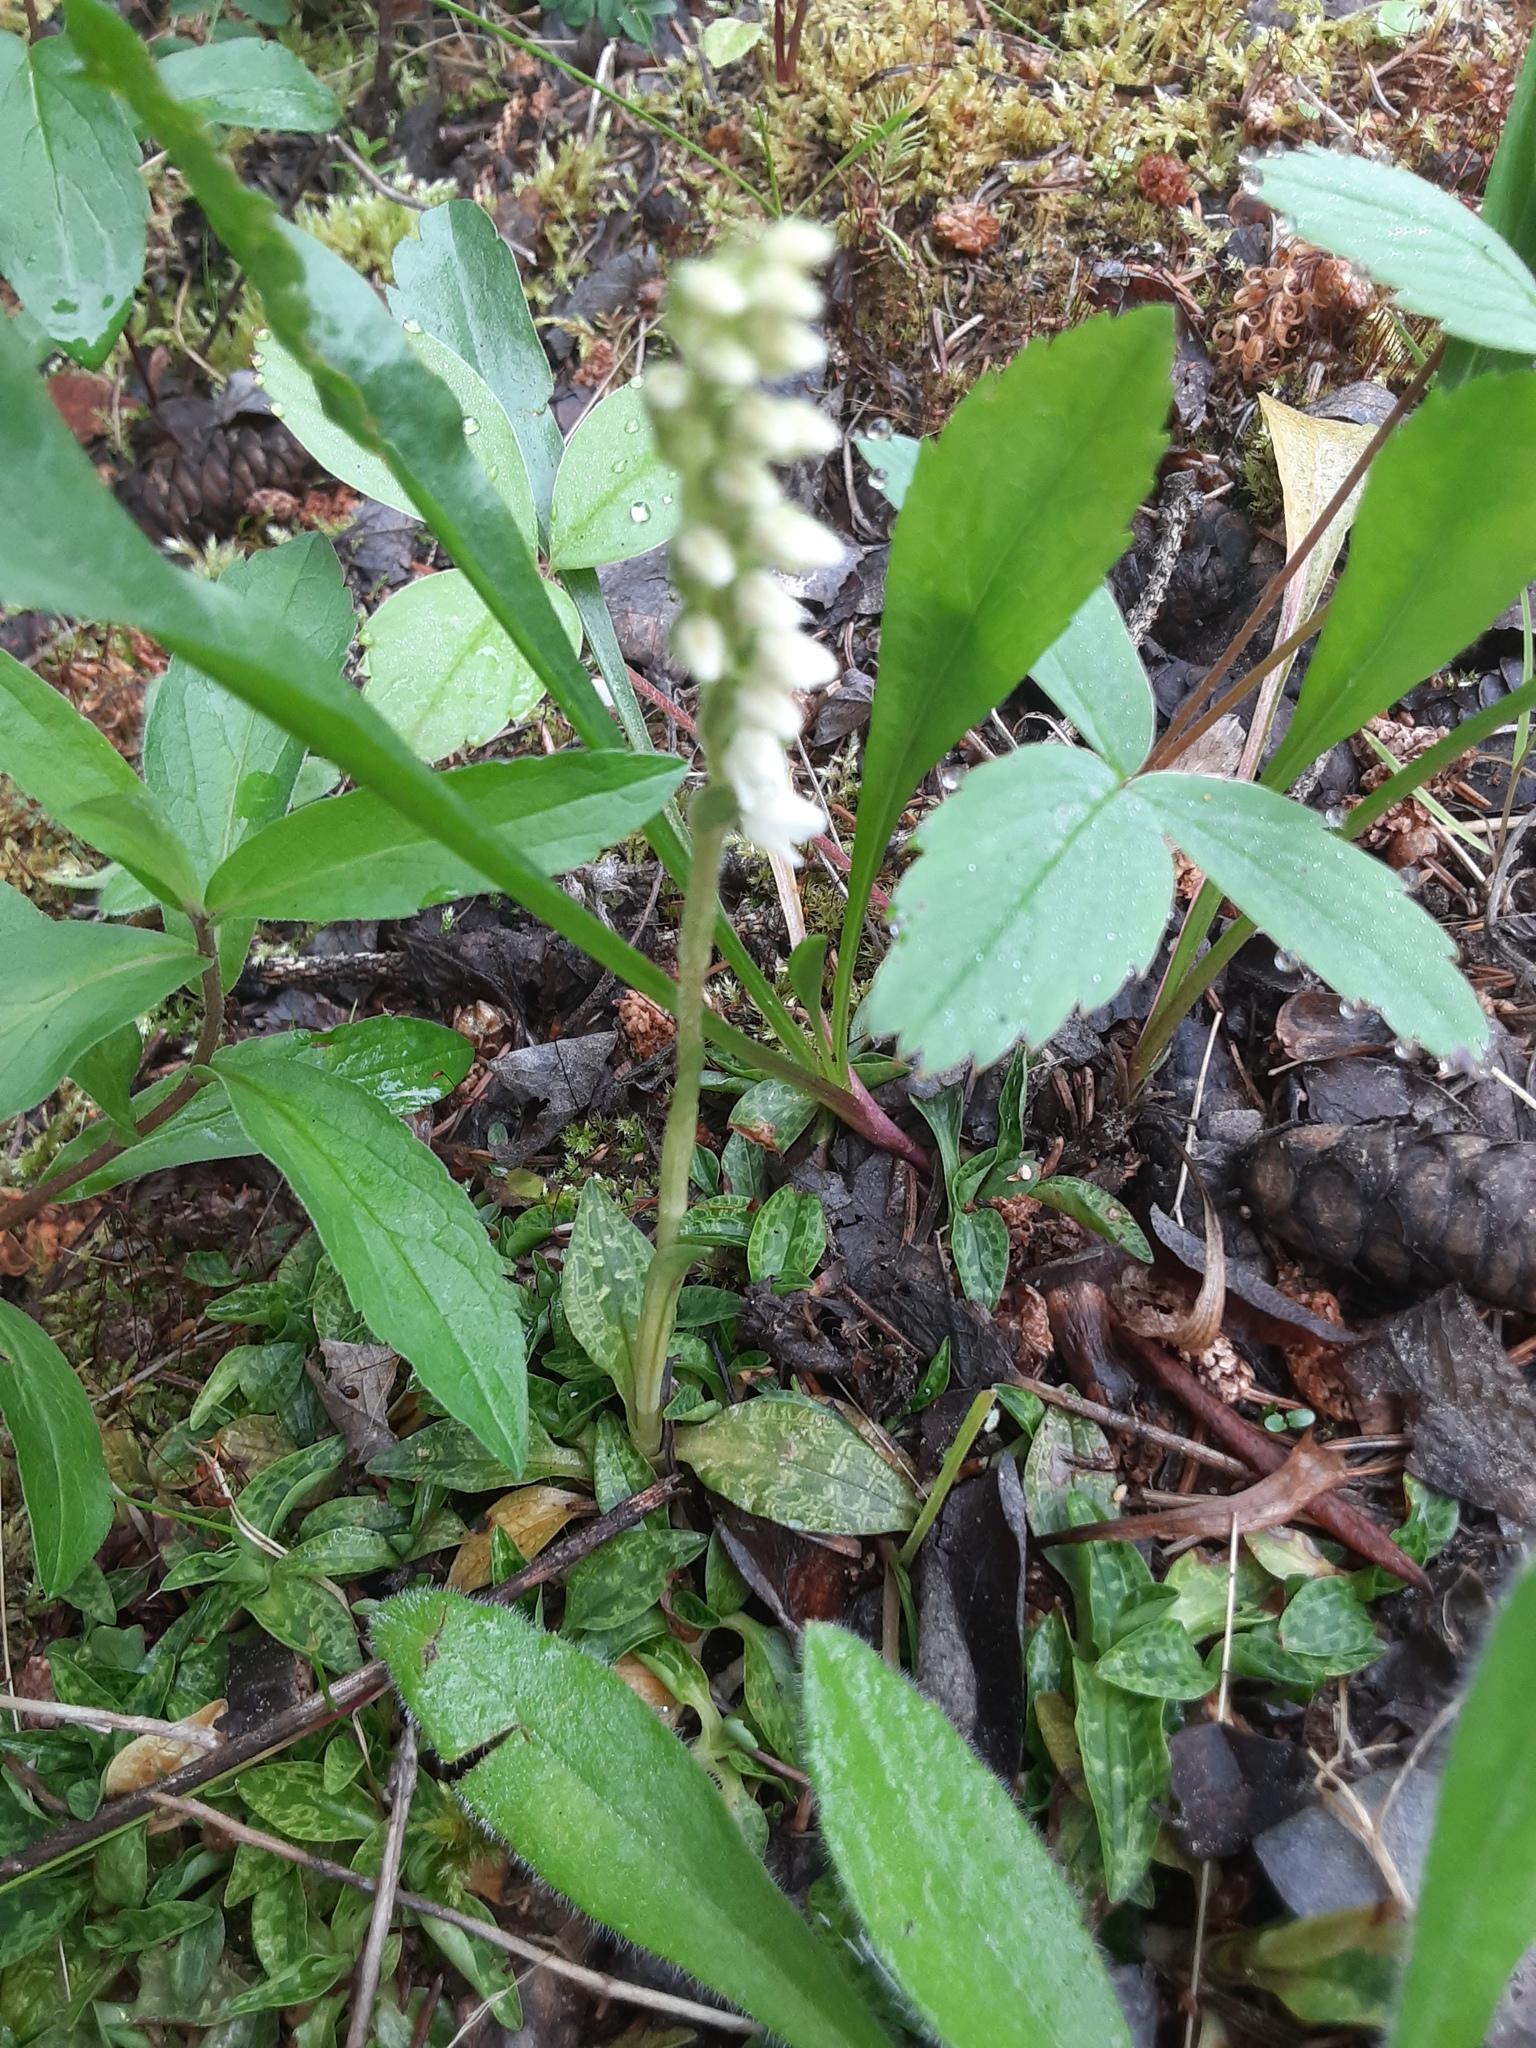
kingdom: Plantae
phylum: Tracheophyta
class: Liliopsida
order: Asparagales
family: Orchidaceae
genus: Goodyera
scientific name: Goodyera repens
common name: Creeping lady's-tresses
